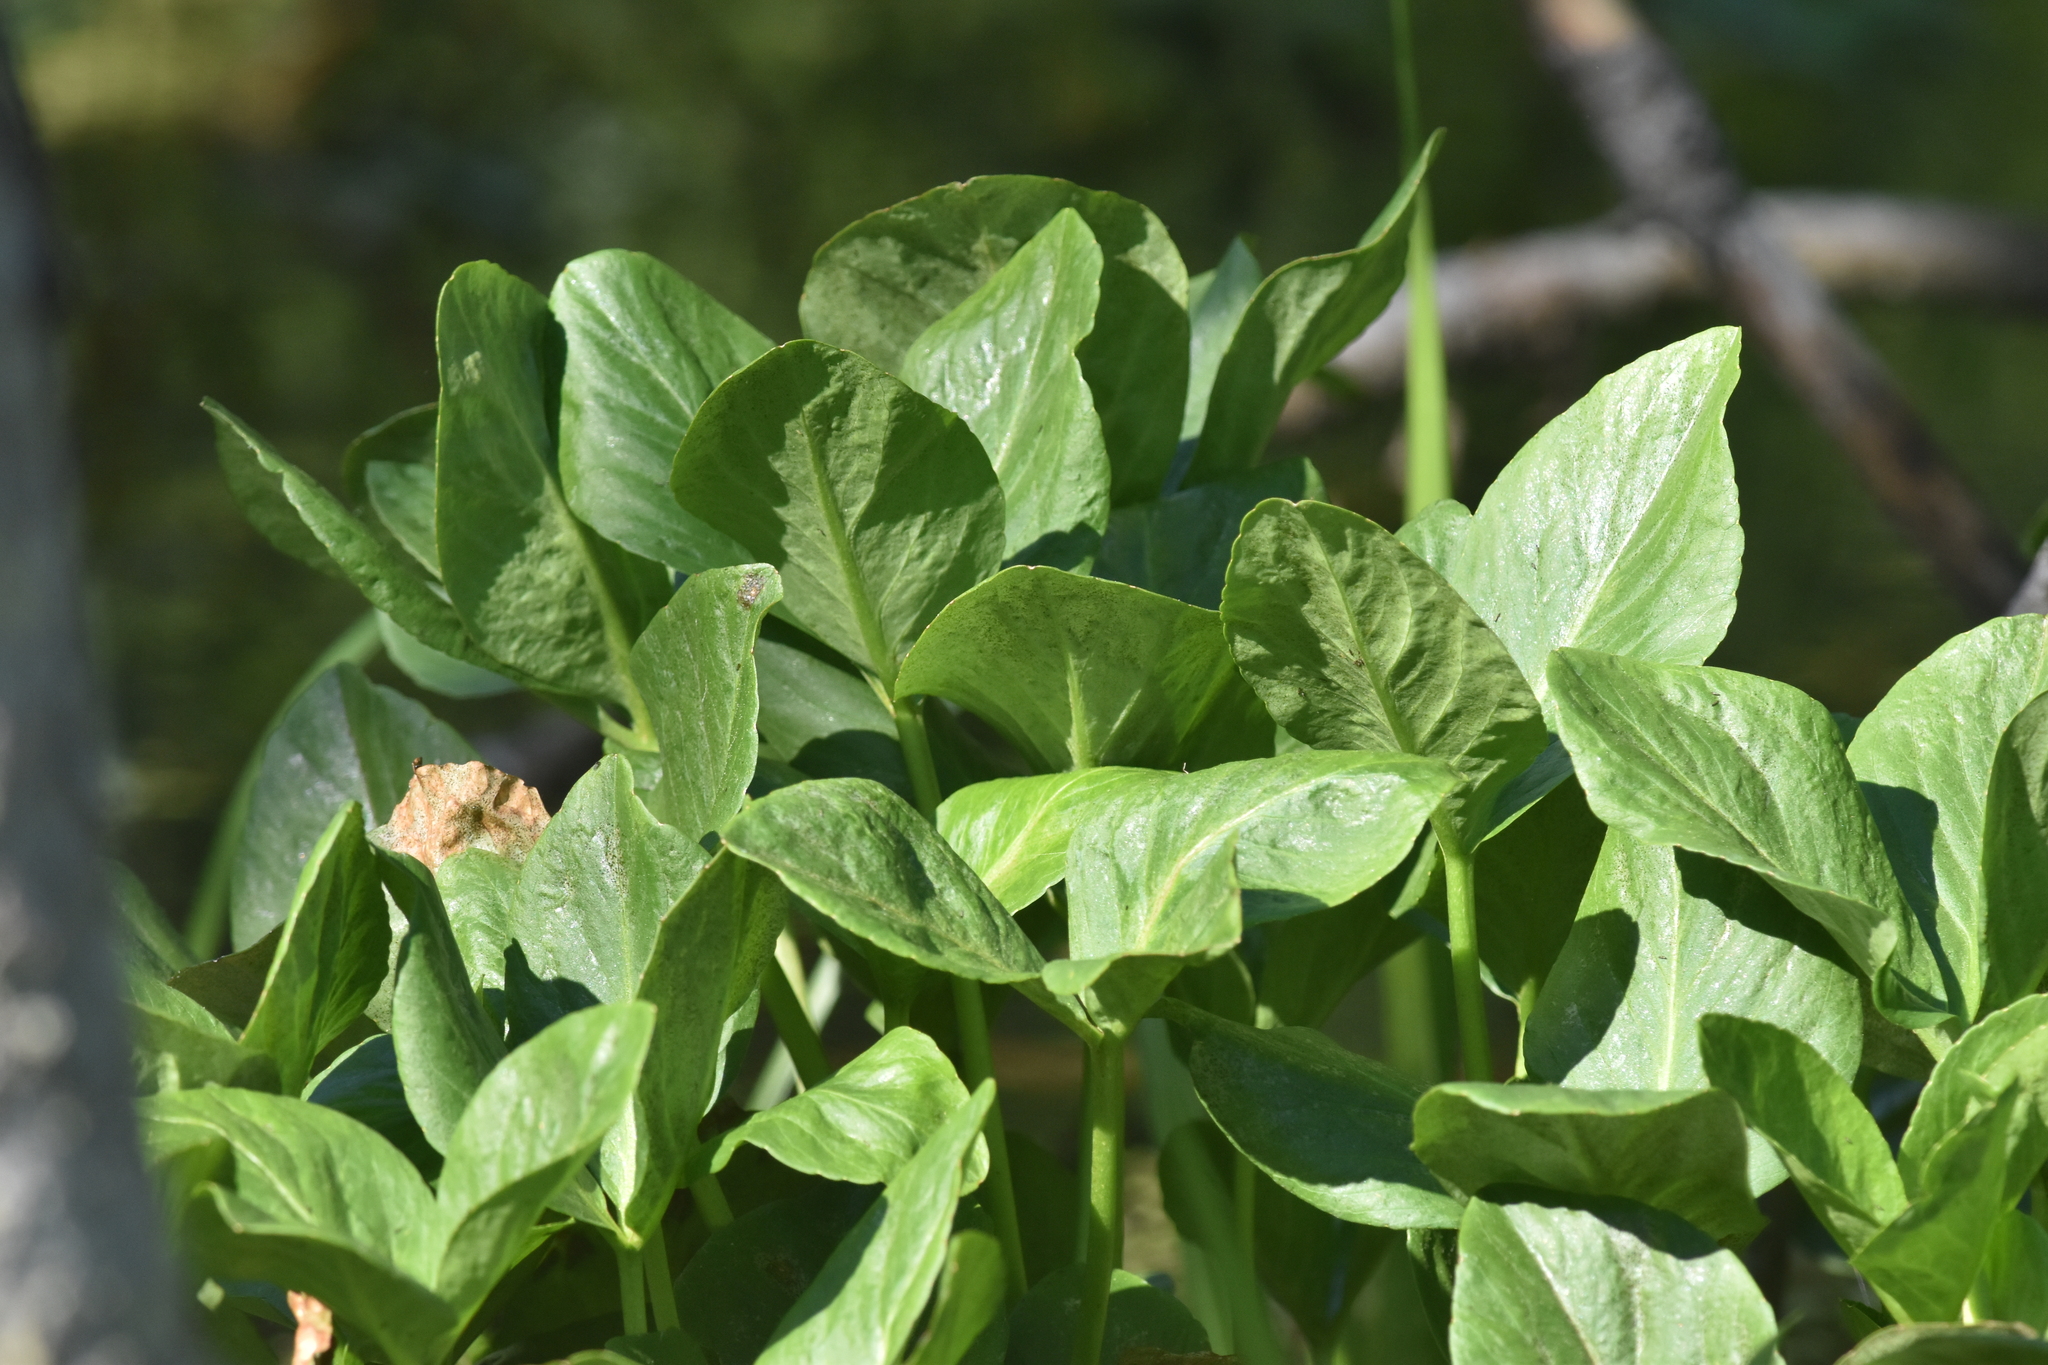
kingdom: Plantae
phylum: Tracheophyta
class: Magnoliopsida
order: Asterales
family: Menyanthaceae
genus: Menyanthes
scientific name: Menyanthes trifoliata
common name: Bogbean
